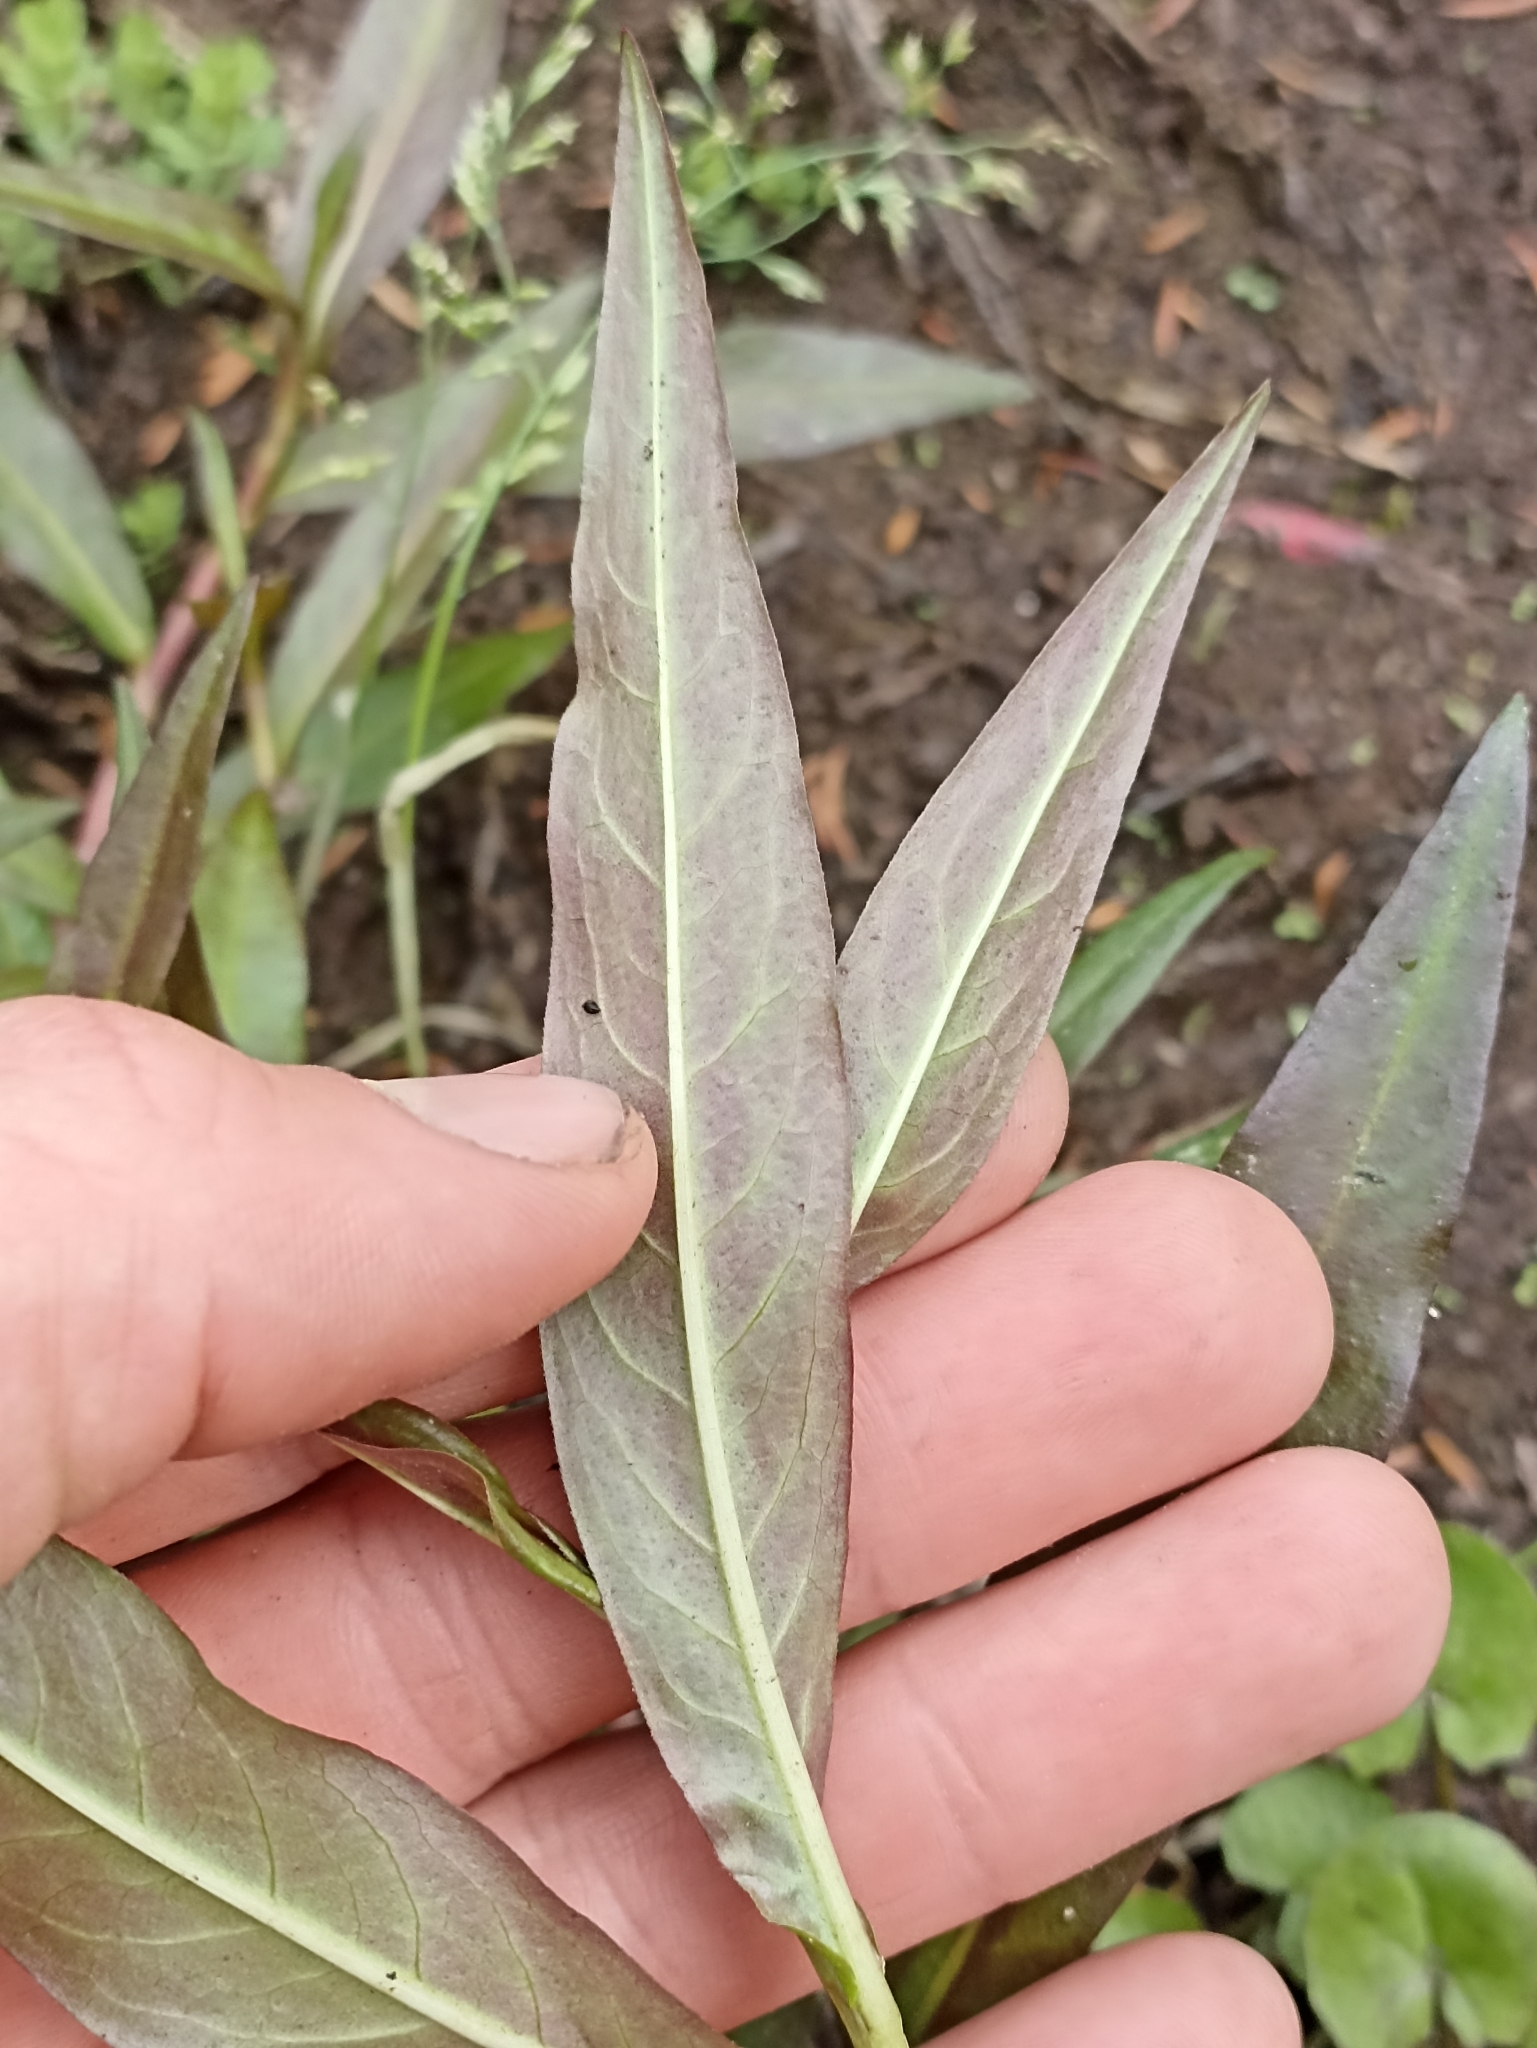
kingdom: Plantae
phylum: Tracheophyta
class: Magnoliopsida
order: Caryophyllales
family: Polygonaceae
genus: Persicaria
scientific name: Persicaria decipiens
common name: Willow-weed
